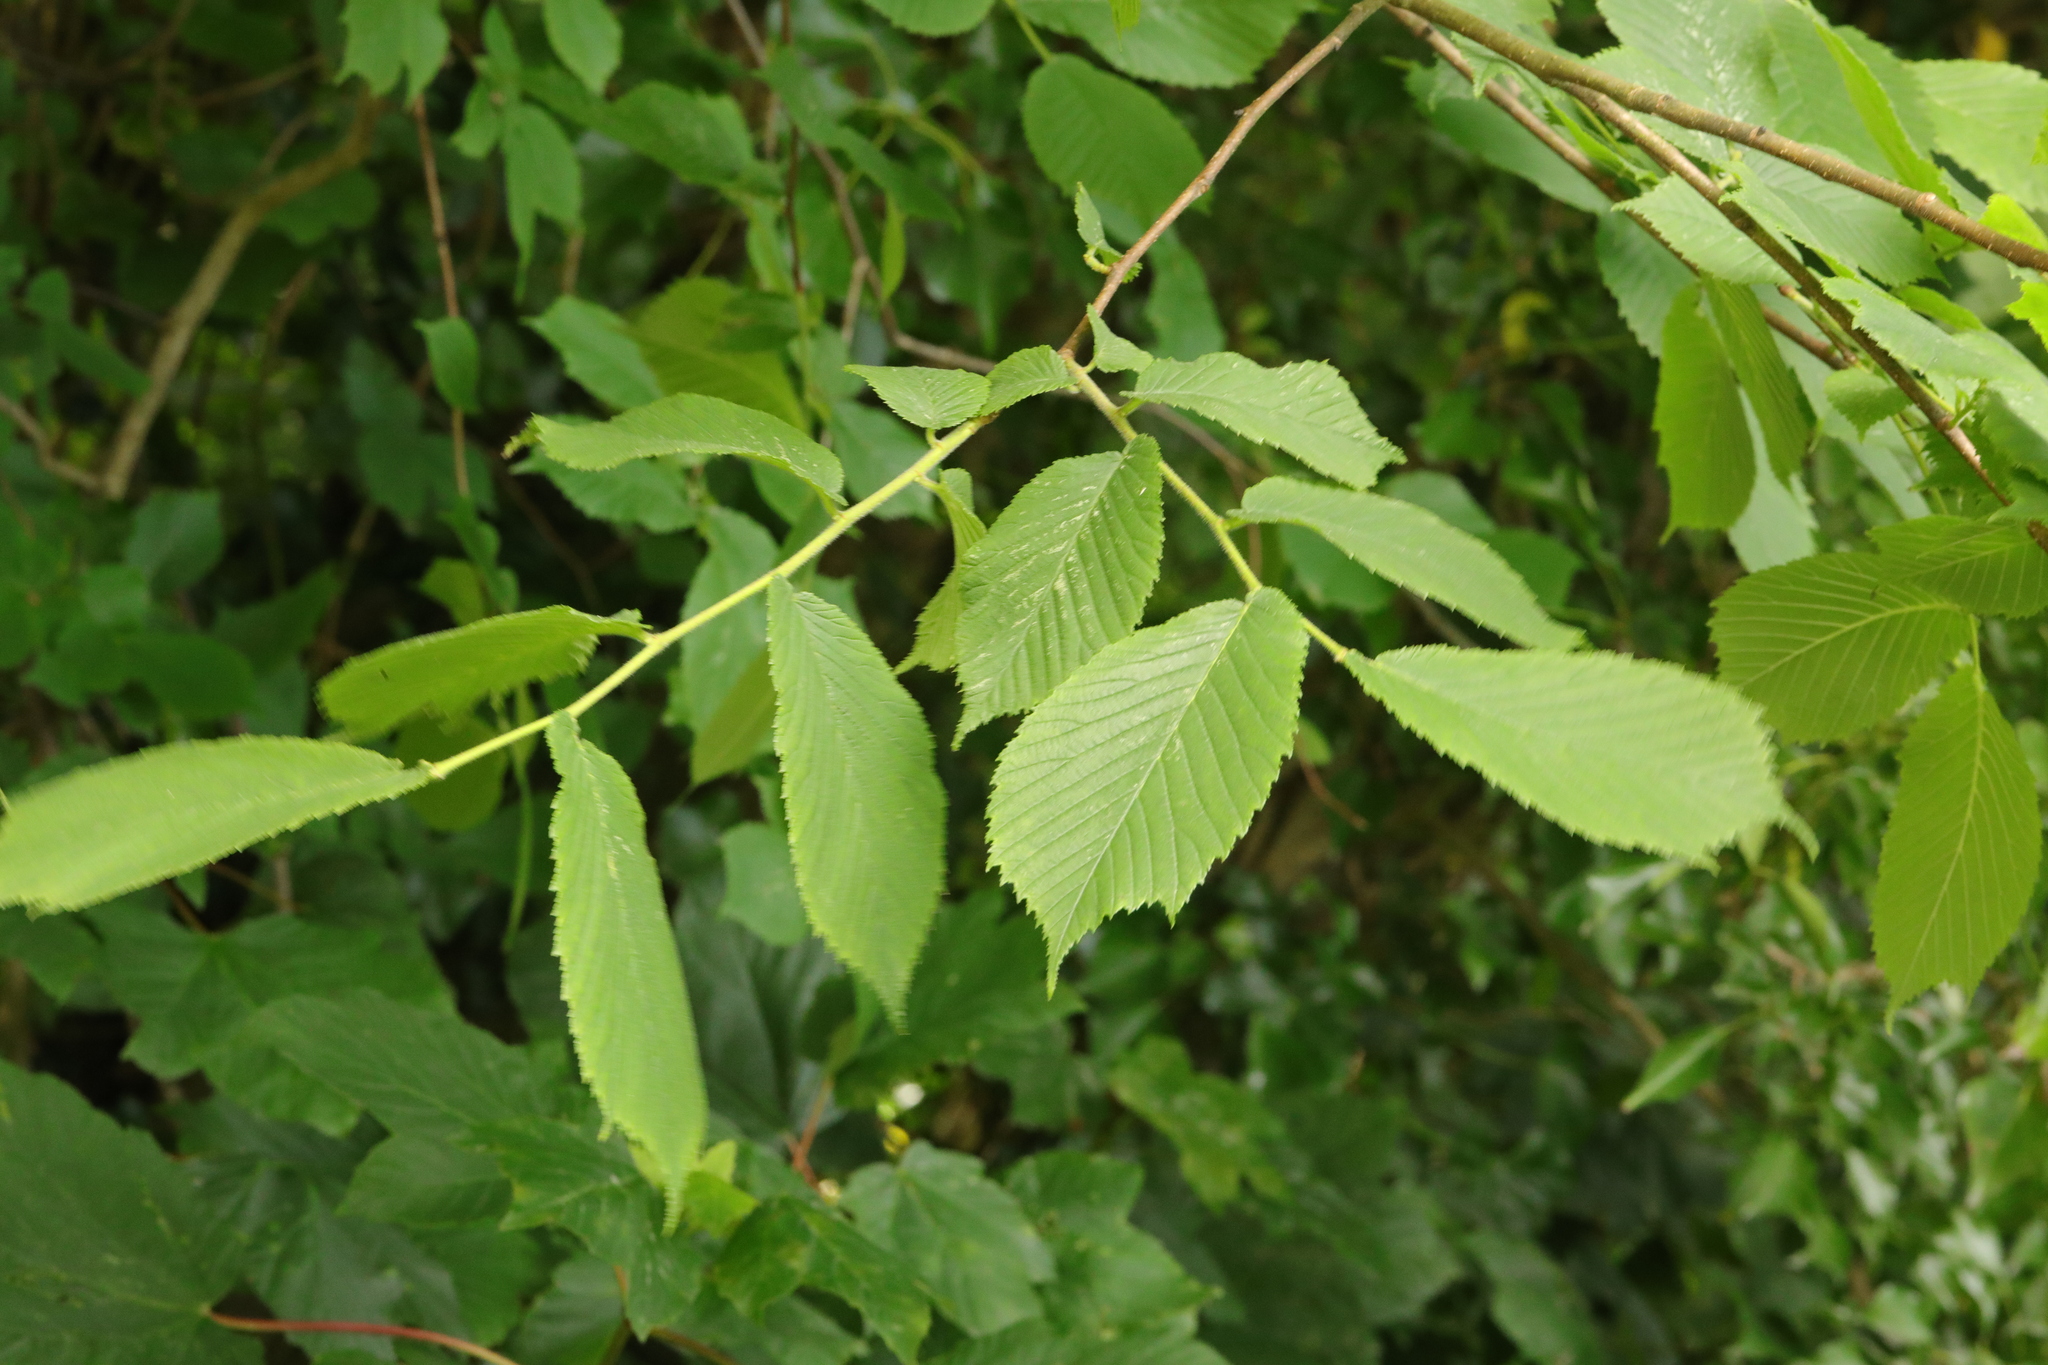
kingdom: Plantae
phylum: Tracheophyta
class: Magnoliopsida
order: Rosales
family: Ulmaceae
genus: Ulmus
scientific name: Ulmus glabra
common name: Wych elm
